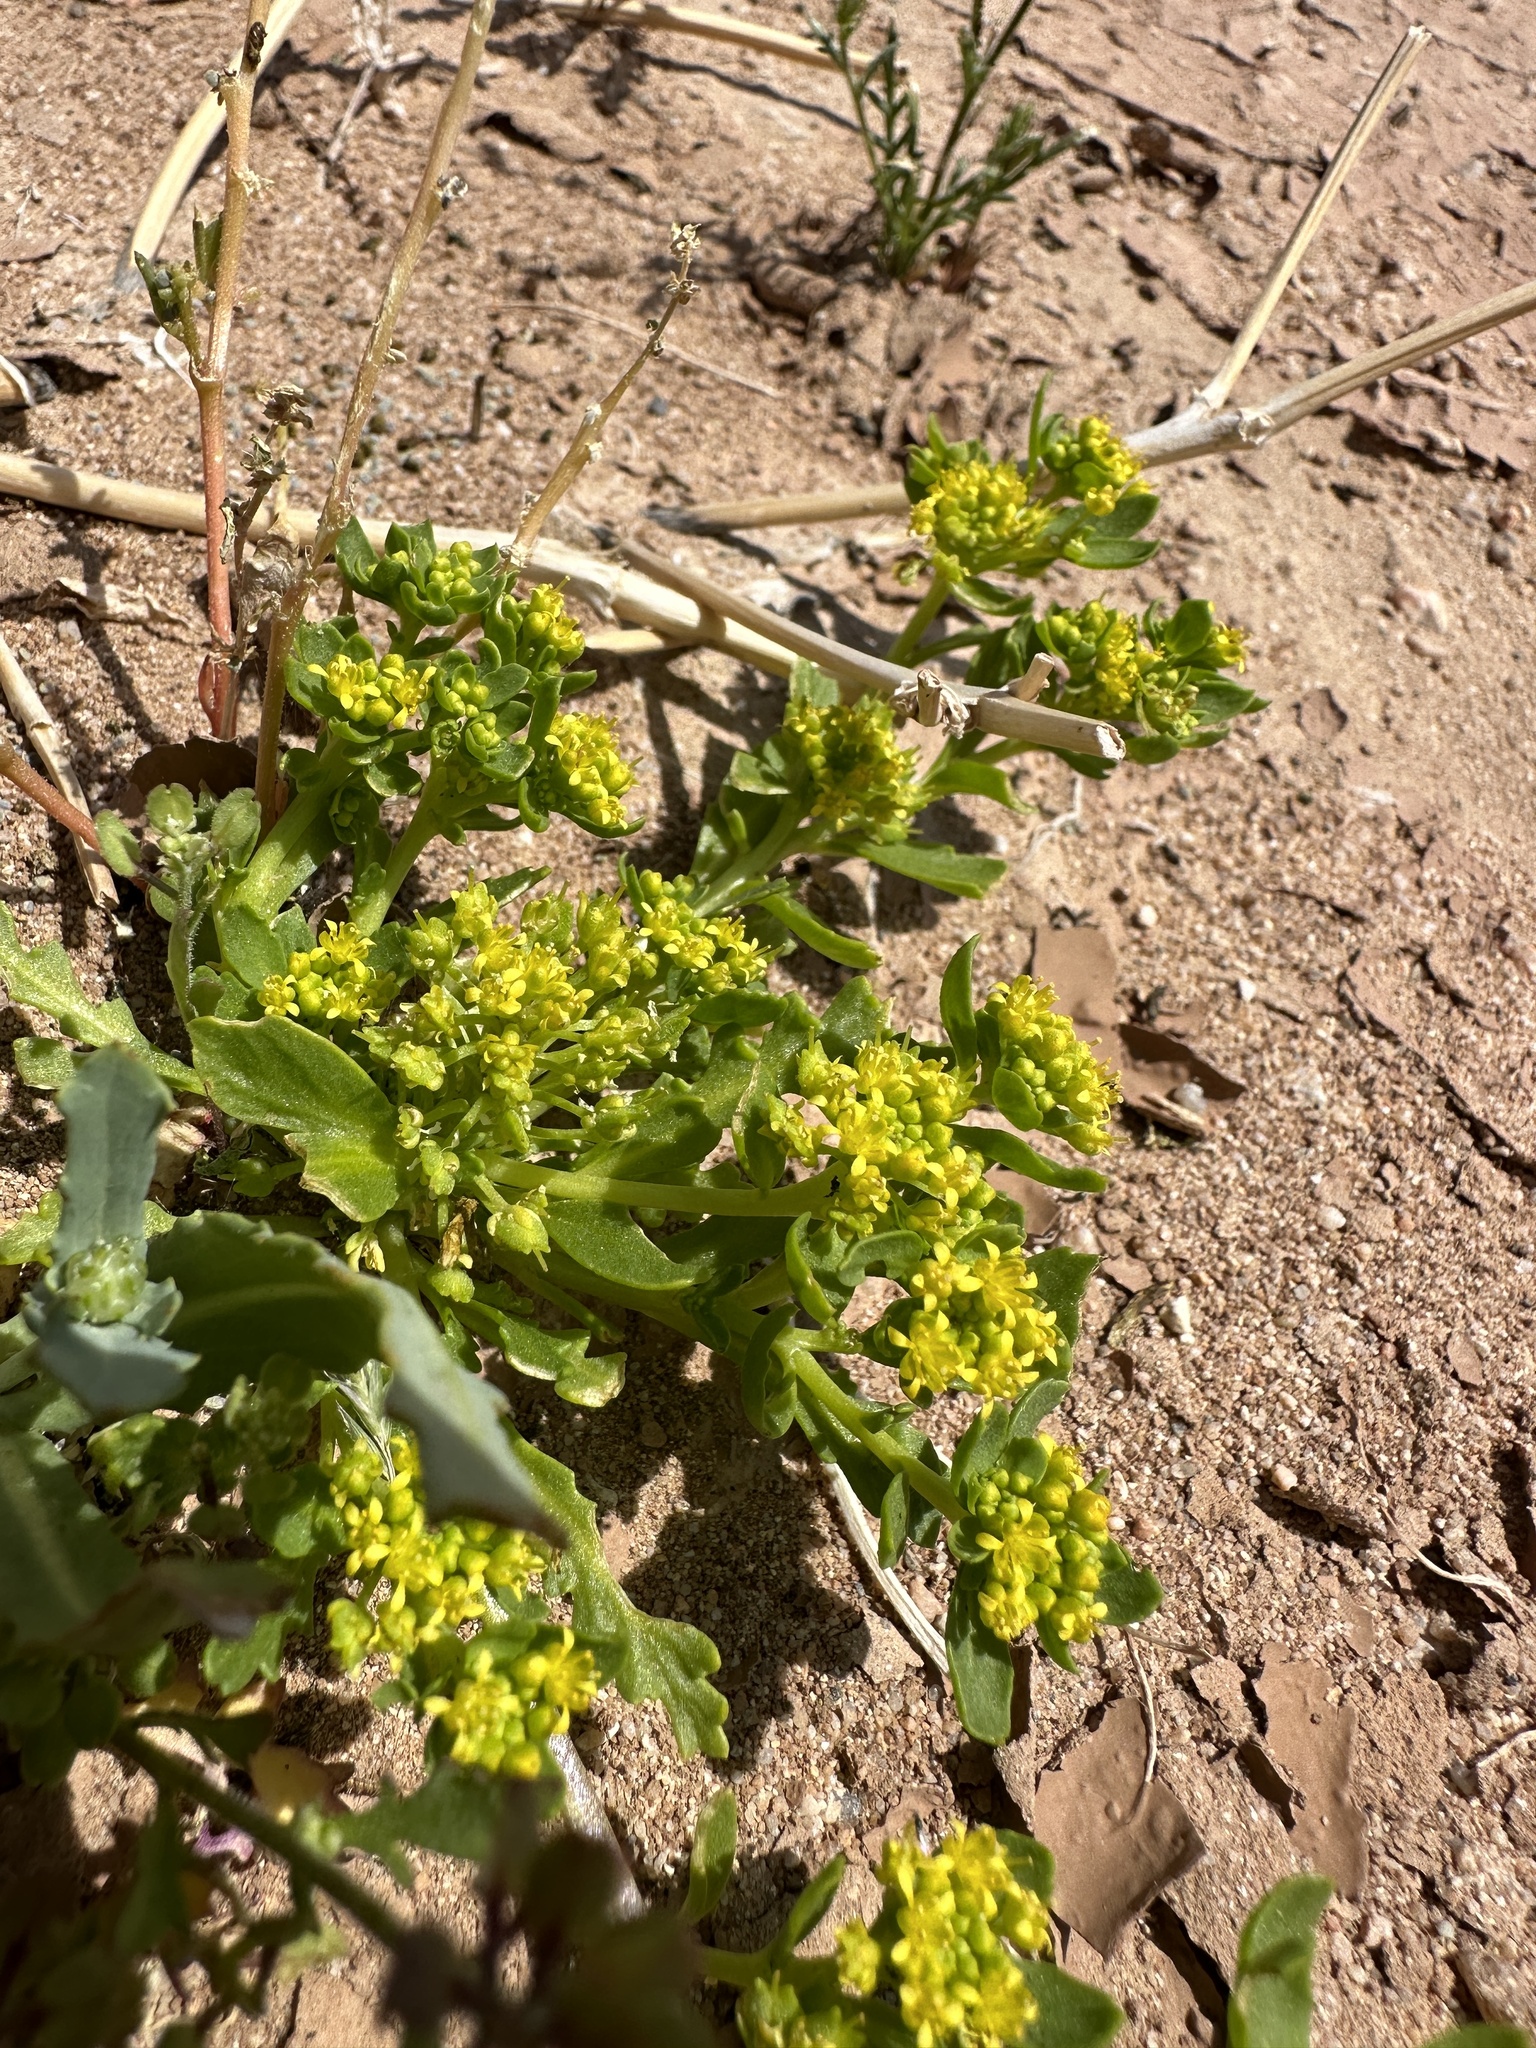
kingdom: Plantae
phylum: Tracheophyta
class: Magnoliopsida
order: Brassicales
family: Brassicaceae
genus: Lepidium
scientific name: Lepidium flavum
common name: Yellow pepperwort
